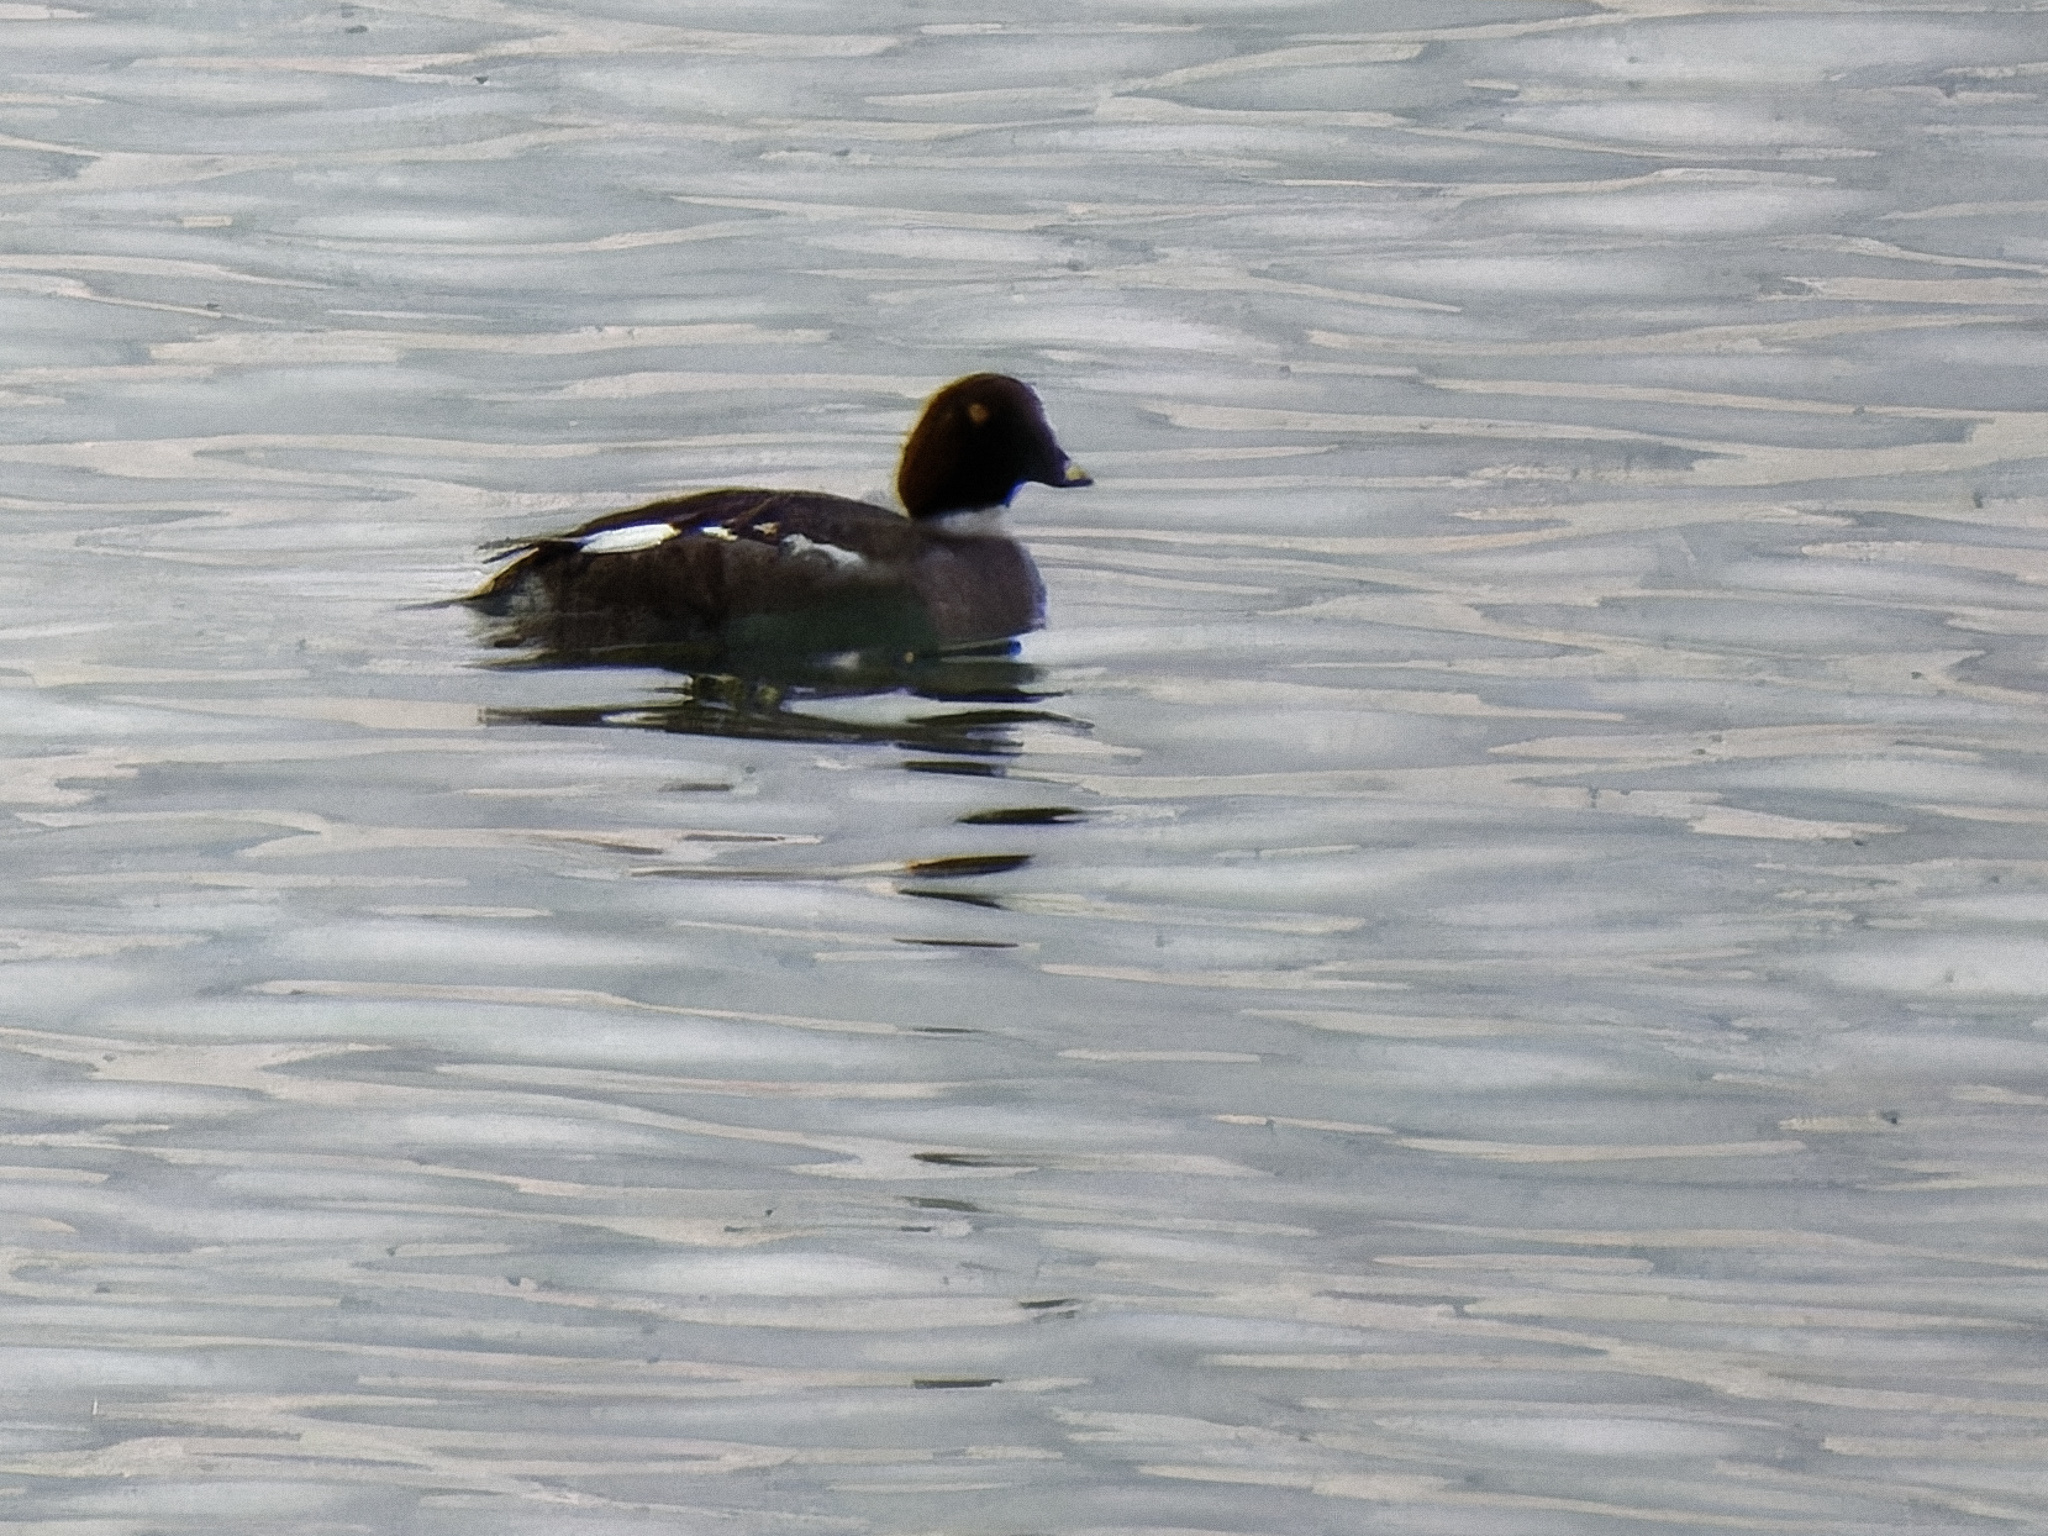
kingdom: Animalia
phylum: Chordata
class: Aves
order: Anseriformes
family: Anatidae
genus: Bucephala
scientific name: Bucephala clangula
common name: Common goldeneye
